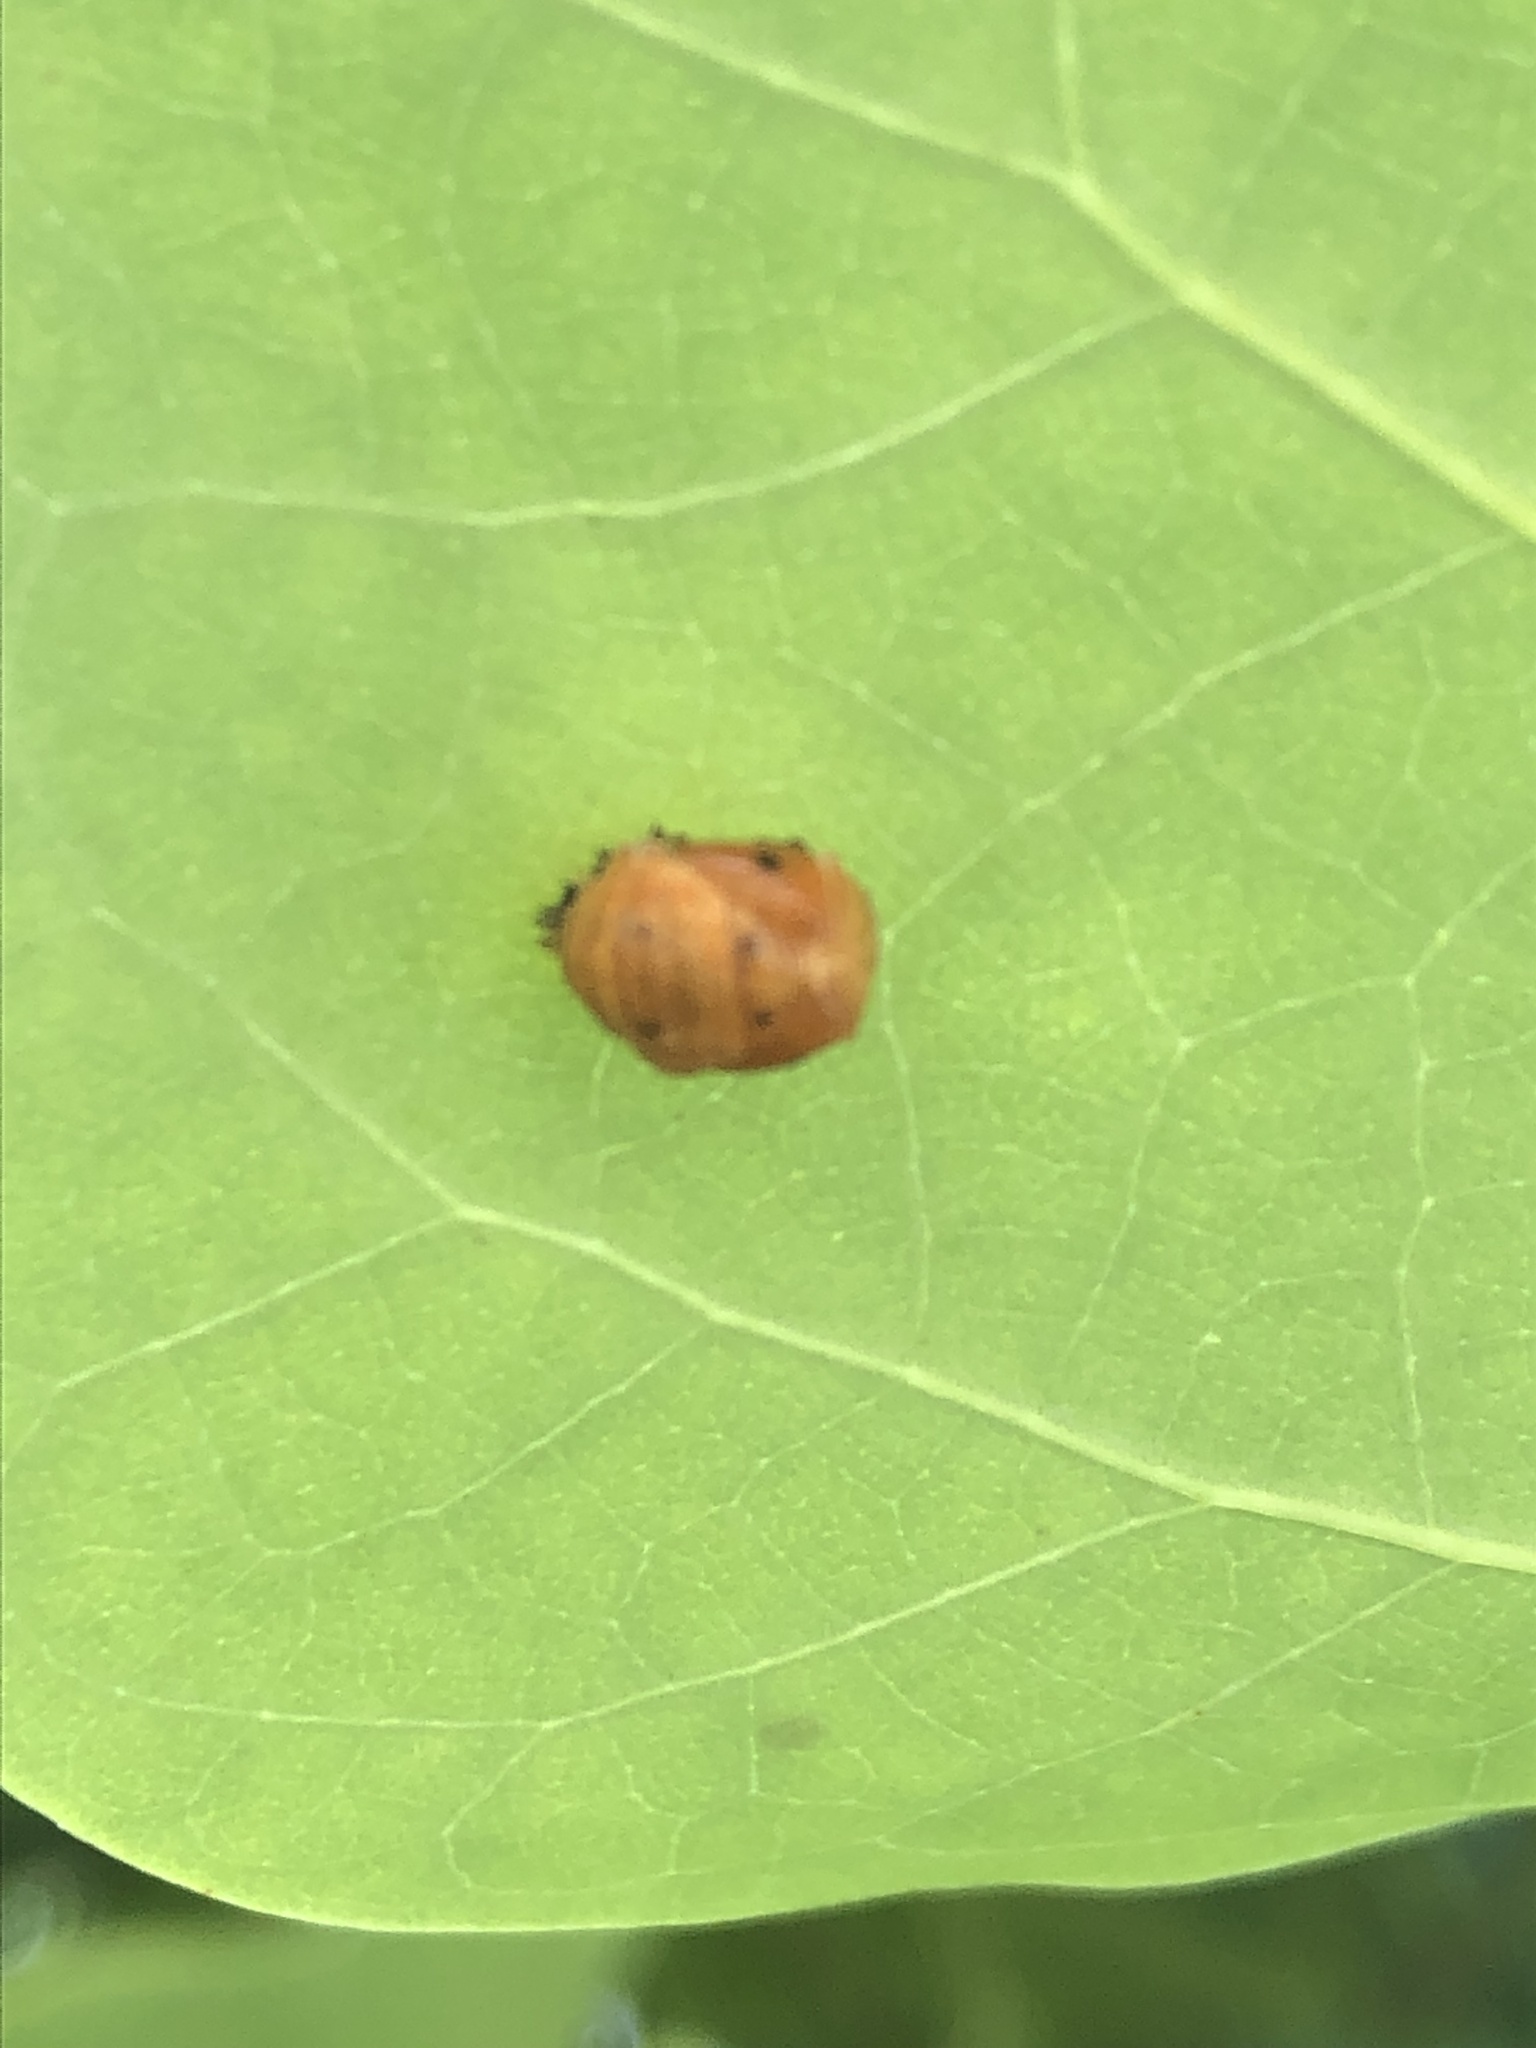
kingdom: Animalia
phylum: Arthropoda
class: Insecta
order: Coleoptera
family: Coccinellidae
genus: Harmonia
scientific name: Harmonia axyridis
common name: Harlequin ladybird
